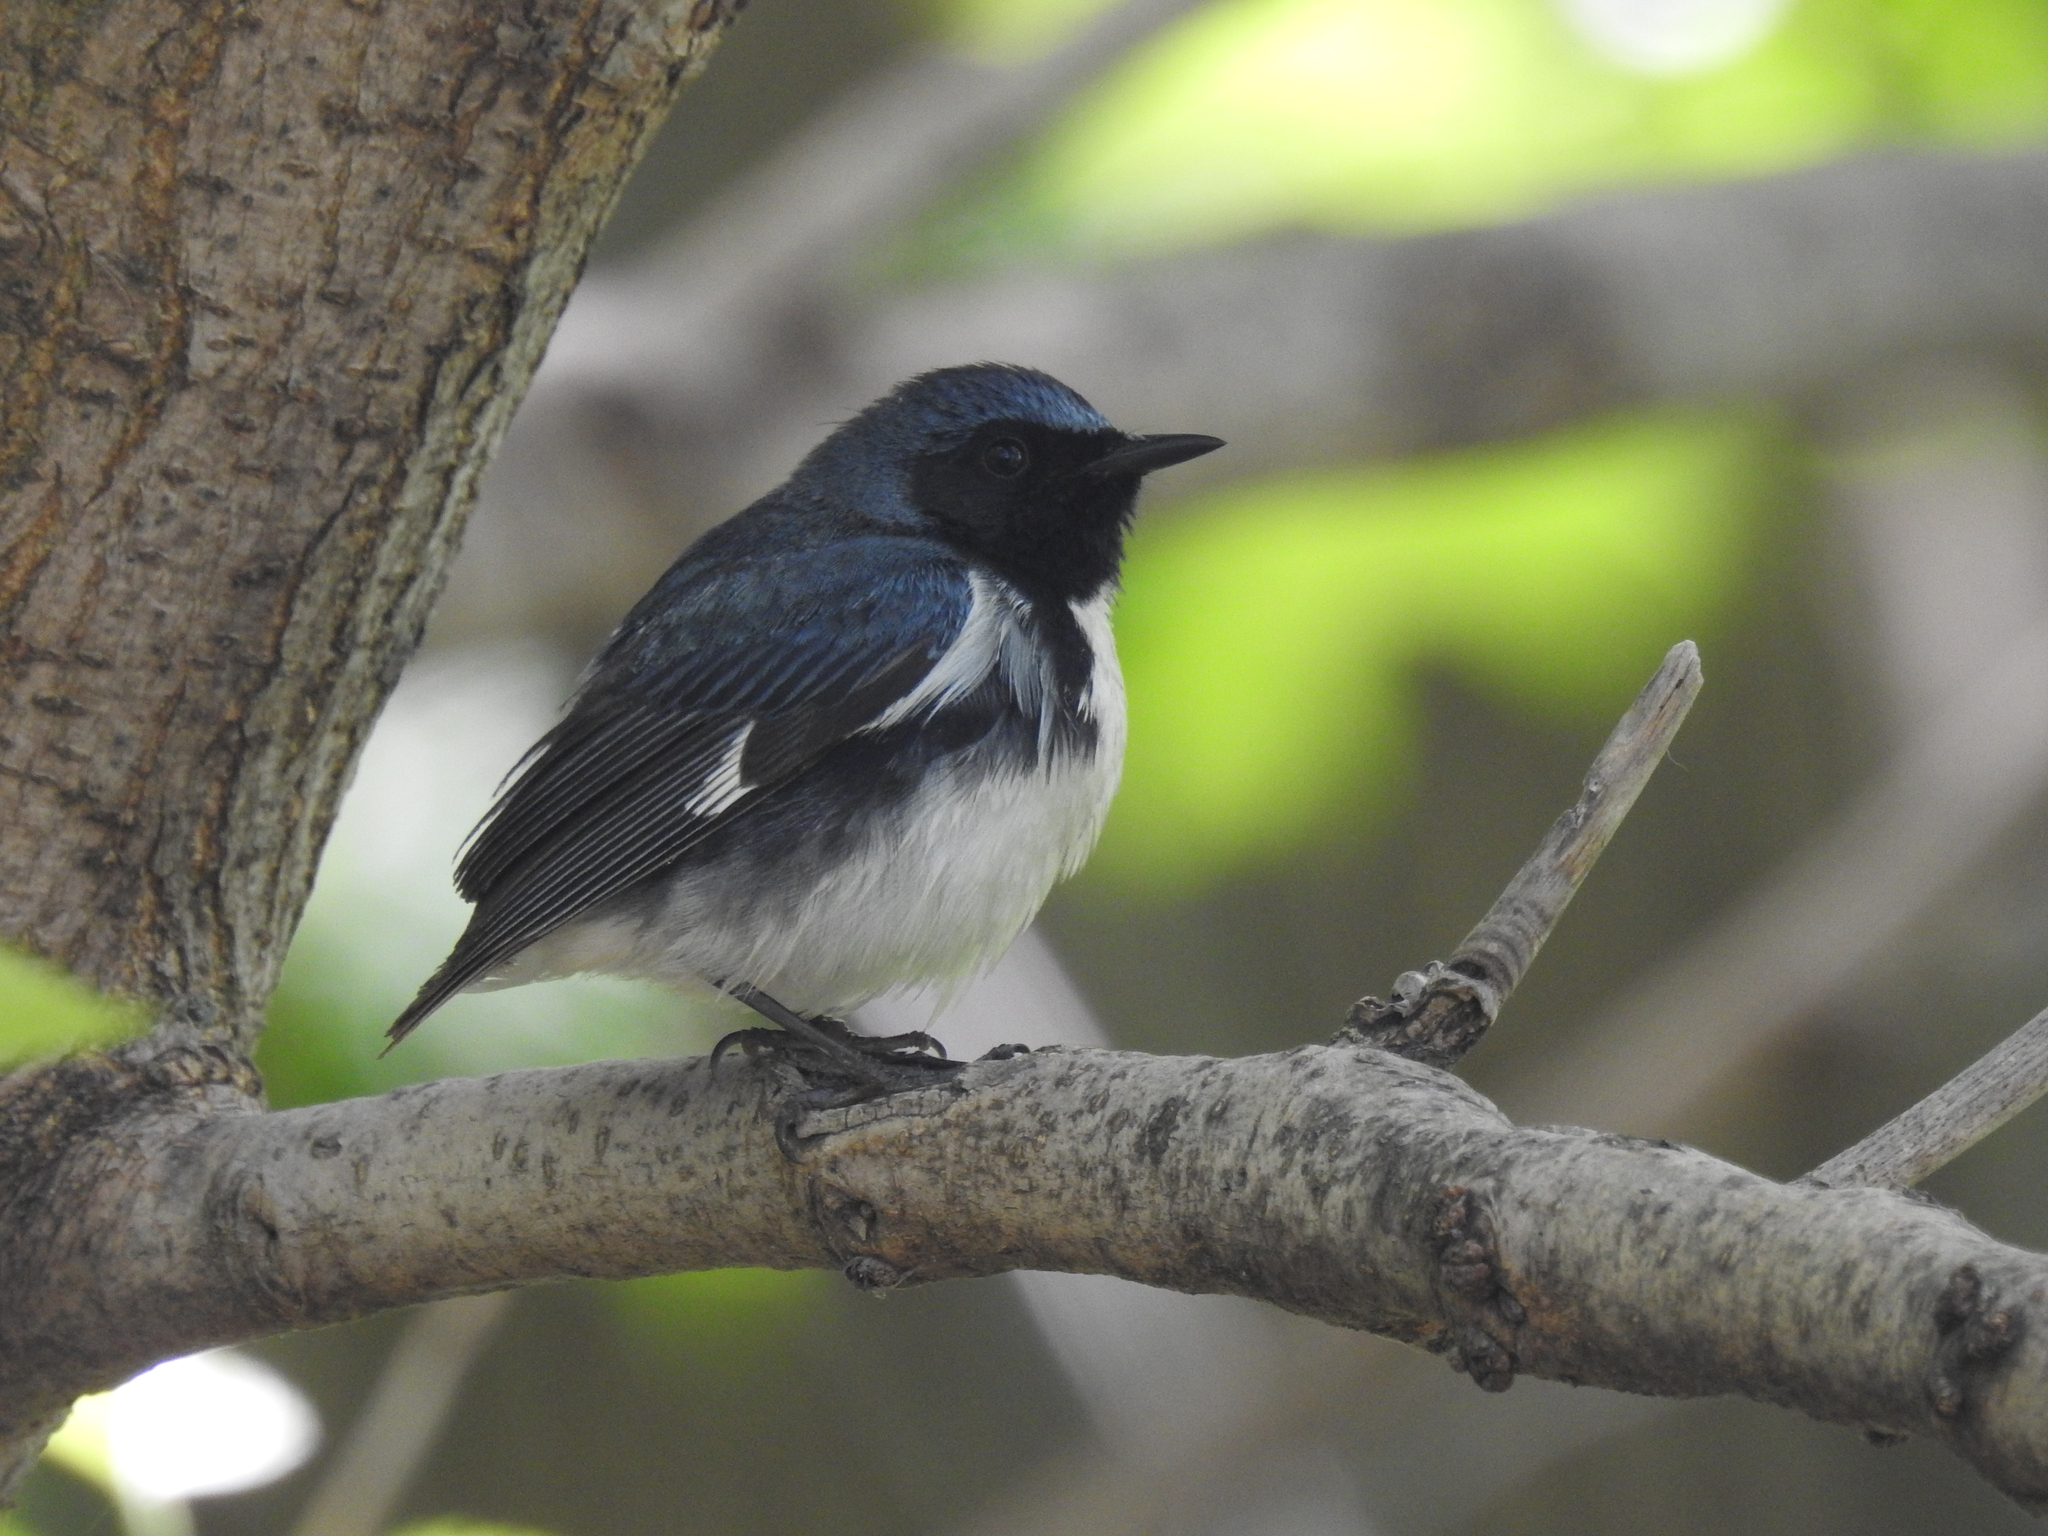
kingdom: Animalia
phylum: Chordata
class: Aves
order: Passeriformes
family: Parulidae
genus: Setophaga
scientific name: Setophaga caerulescens
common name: Black-throated blue warbler
